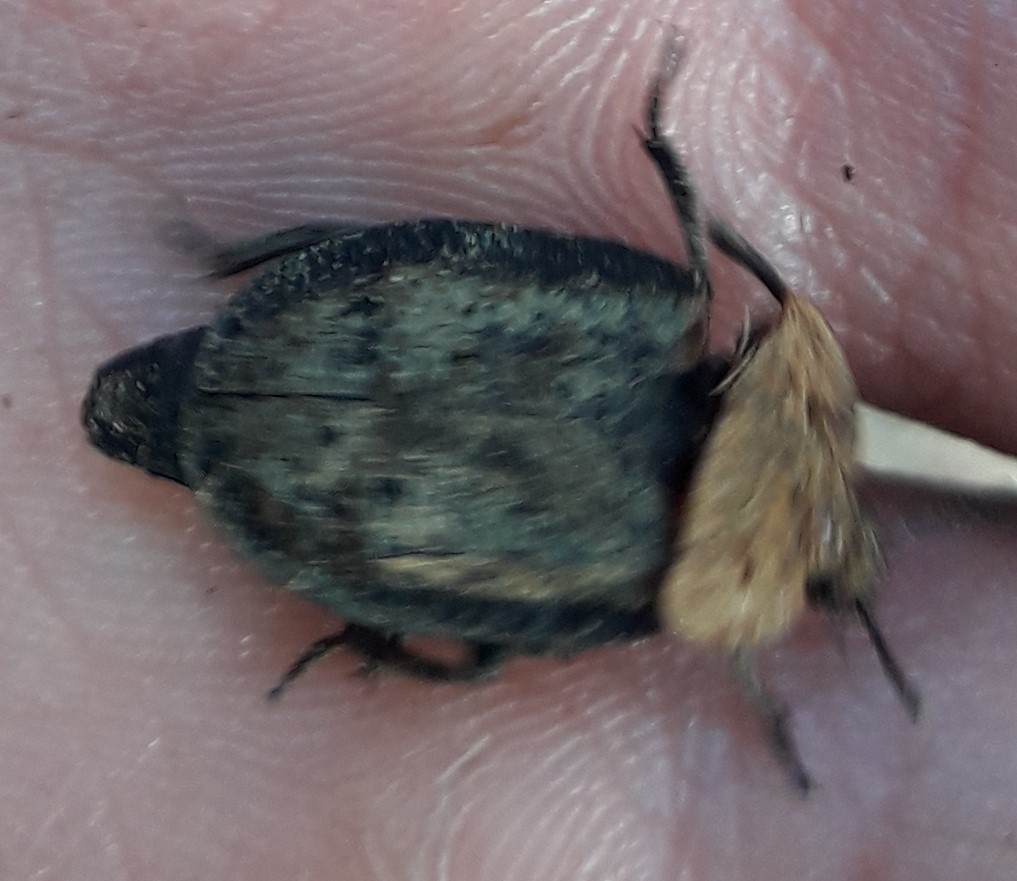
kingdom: Animalia
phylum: Arthropoda
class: Insecta
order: Coleoptera
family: Staphylinidae
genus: Oiceoptoma
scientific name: Oiceoptoma thoracicum
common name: Red-breasted carrion beetle
